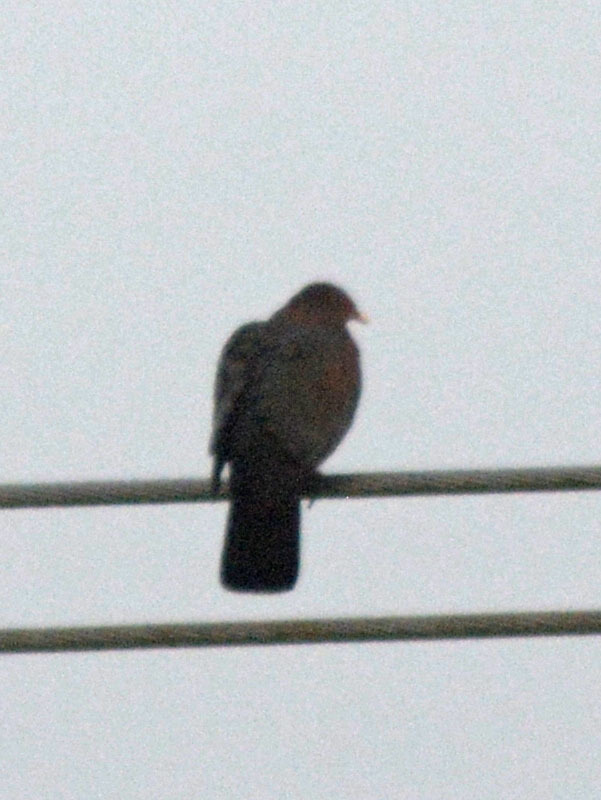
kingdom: Animalia
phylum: Chordata
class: Aves
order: Columbiformes
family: Columbidae
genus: Patagioenas
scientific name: Patagioenas flavirostris
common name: Red-billed pigeon
